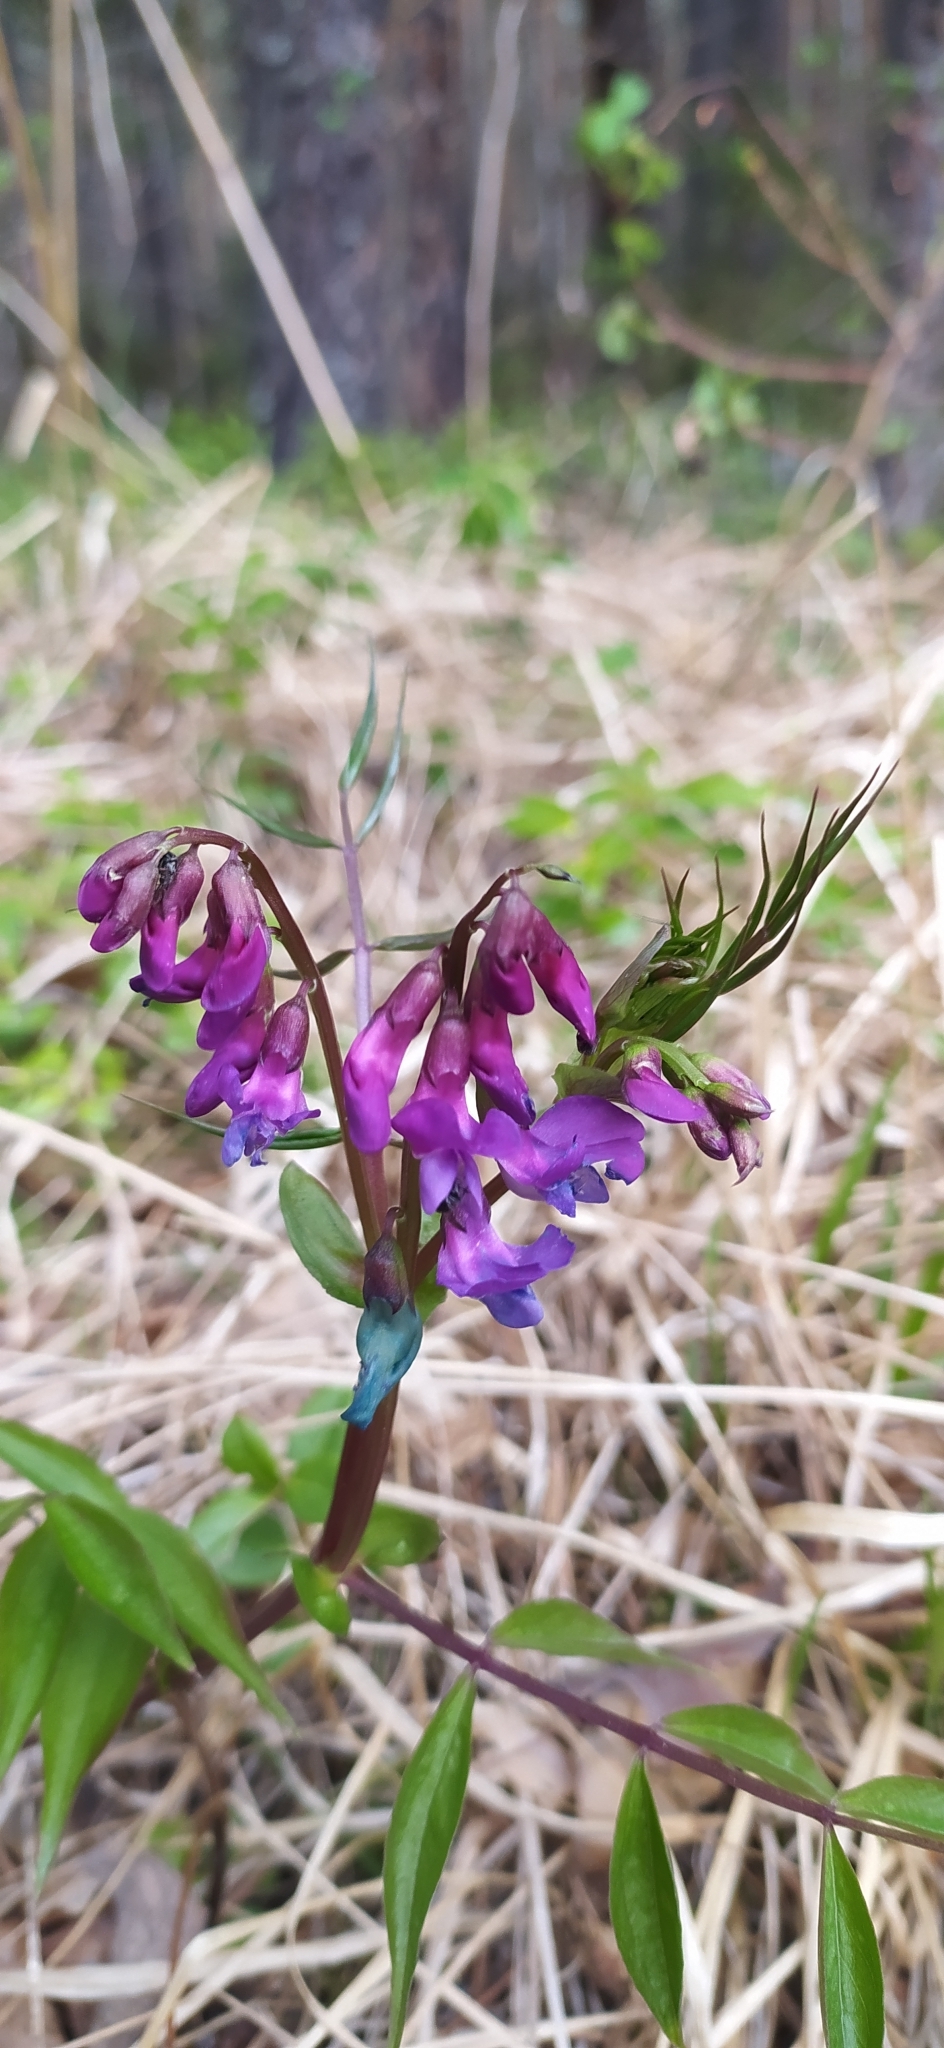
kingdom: Plantae
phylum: Tracheophyta
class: Magnoliopsida
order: Fabales
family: Fabaceae
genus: Lathyrus
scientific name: Lathyrus vernus
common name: Spring pea
